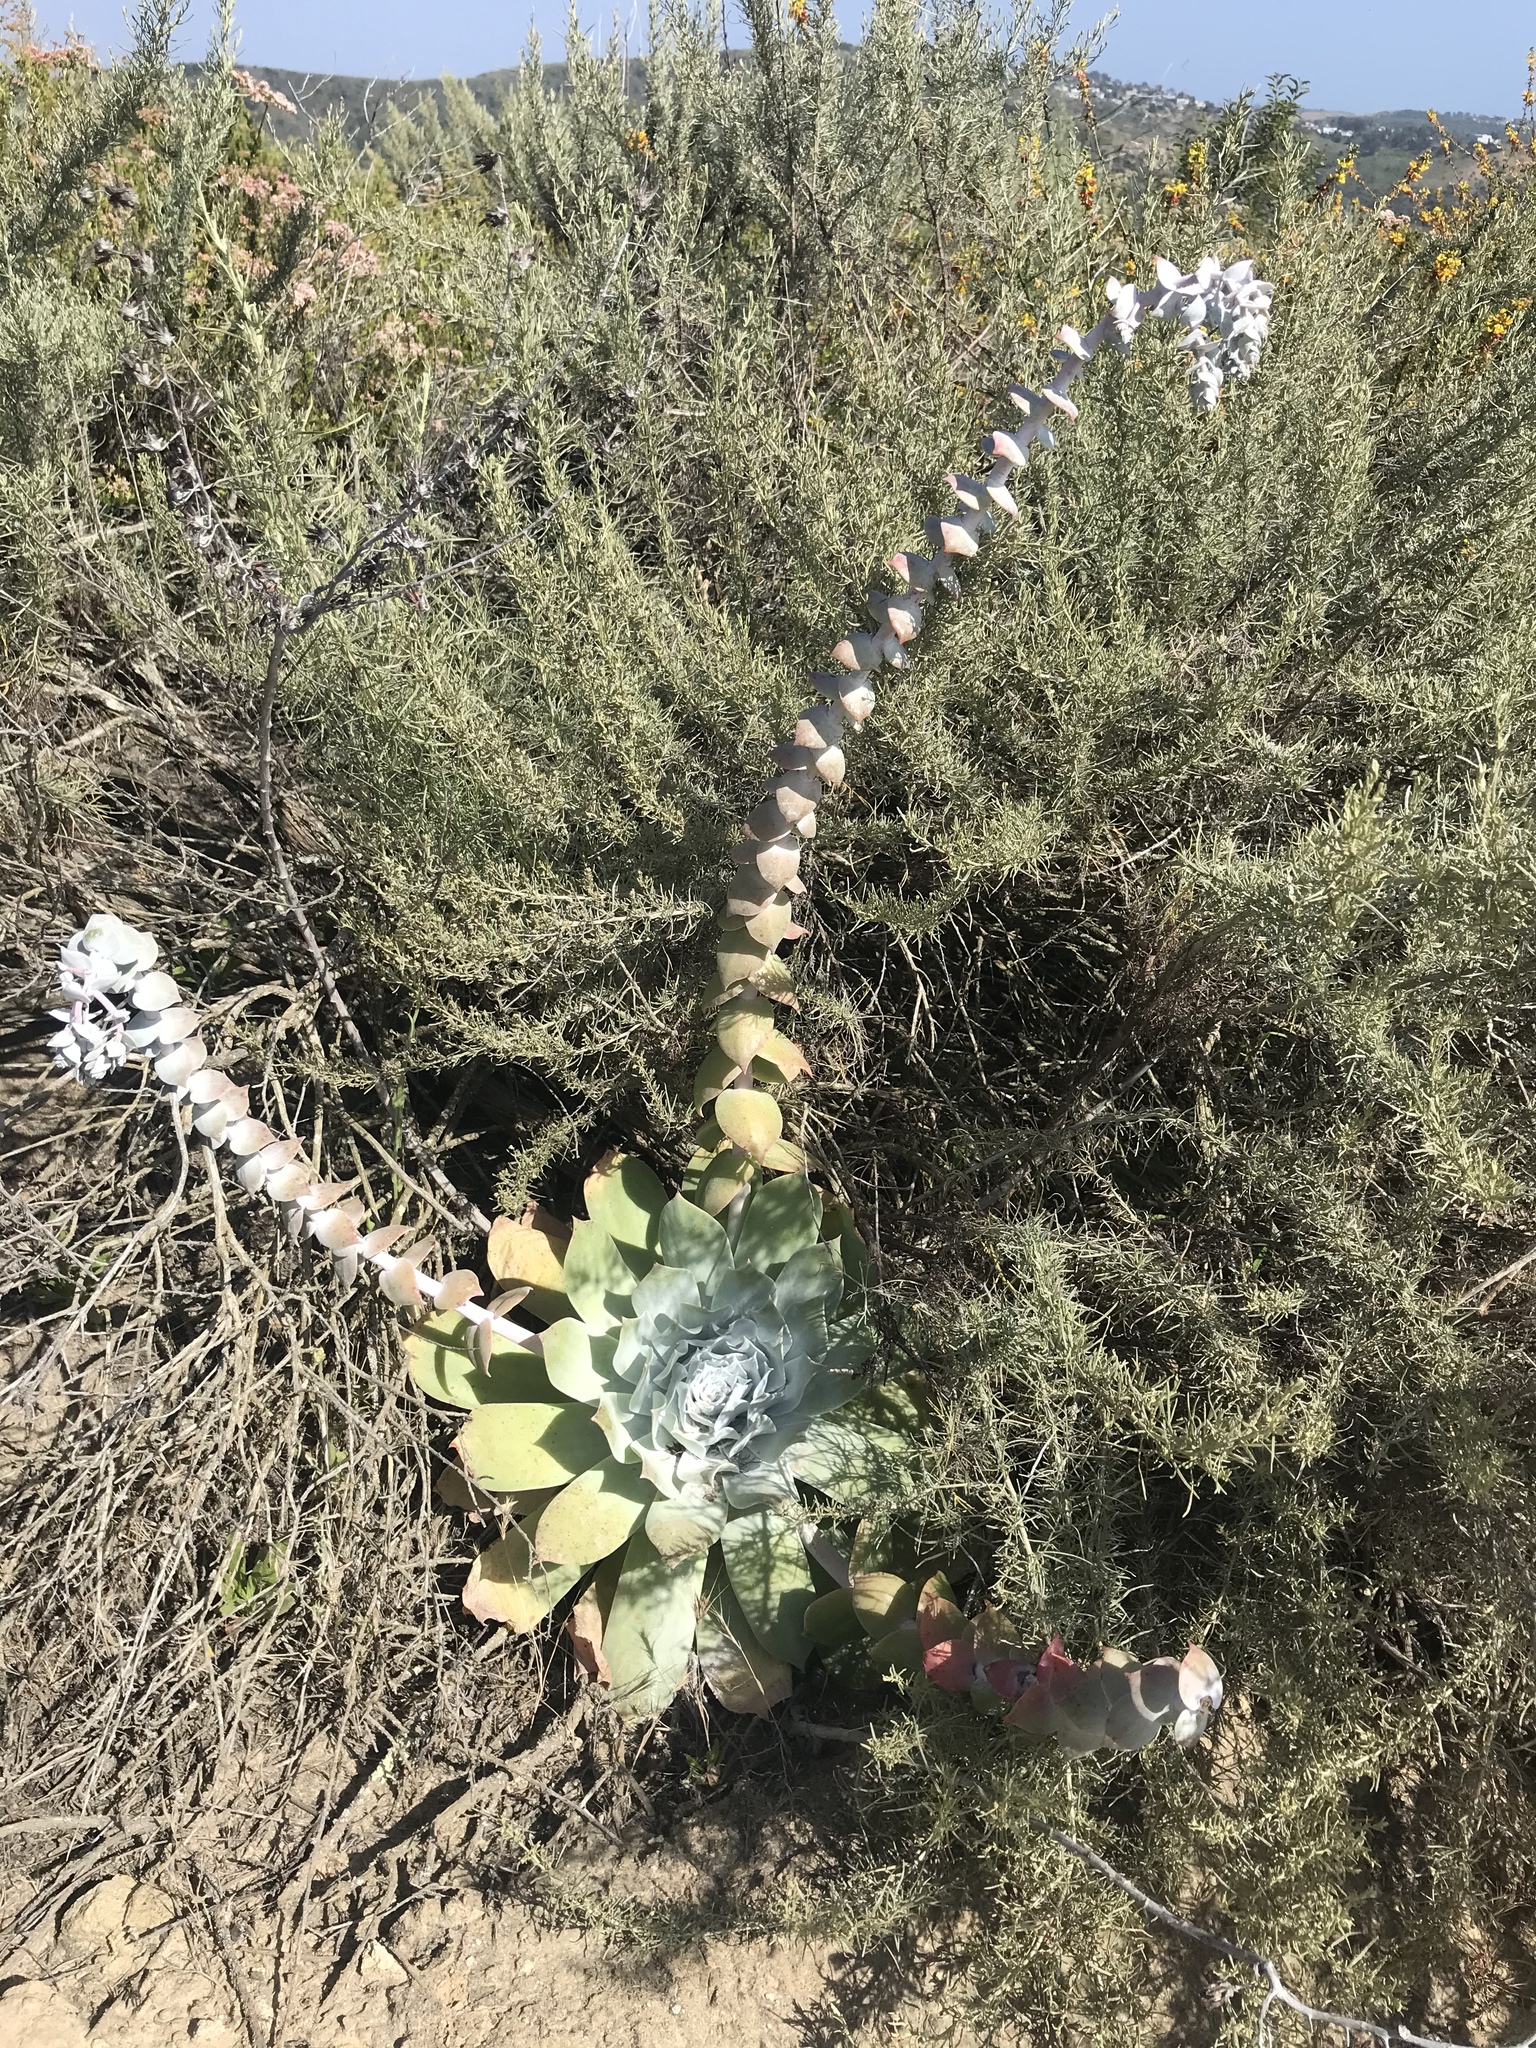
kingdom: Plantae
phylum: Tracheophyta
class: Magnoliopsida
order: Saxifragales
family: Crassulaceae
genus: Dudleya
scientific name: Dudleya pulverulenta
